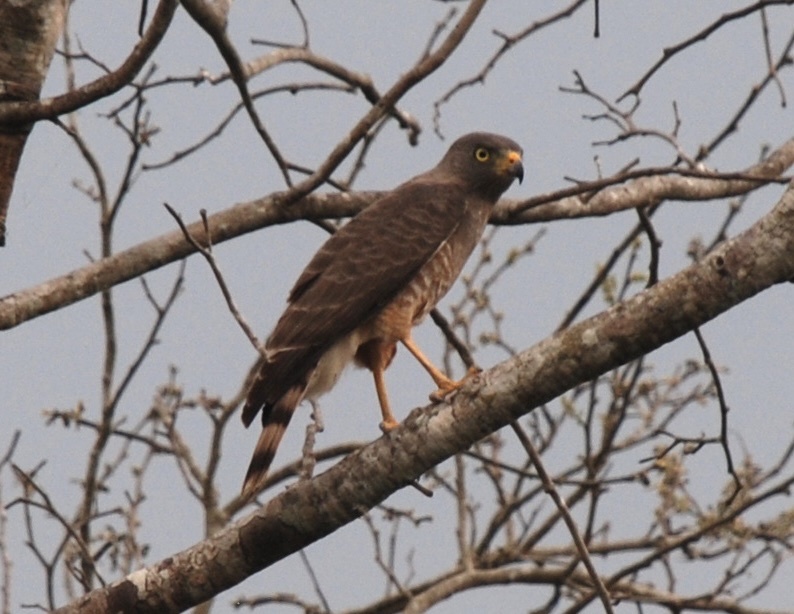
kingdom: Animalia
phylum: Chordata
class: Aves
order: Accipitriformes
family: Accipitridae
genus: Rupornis
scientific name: Rupornis magnirostris
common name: Roadside hawk
